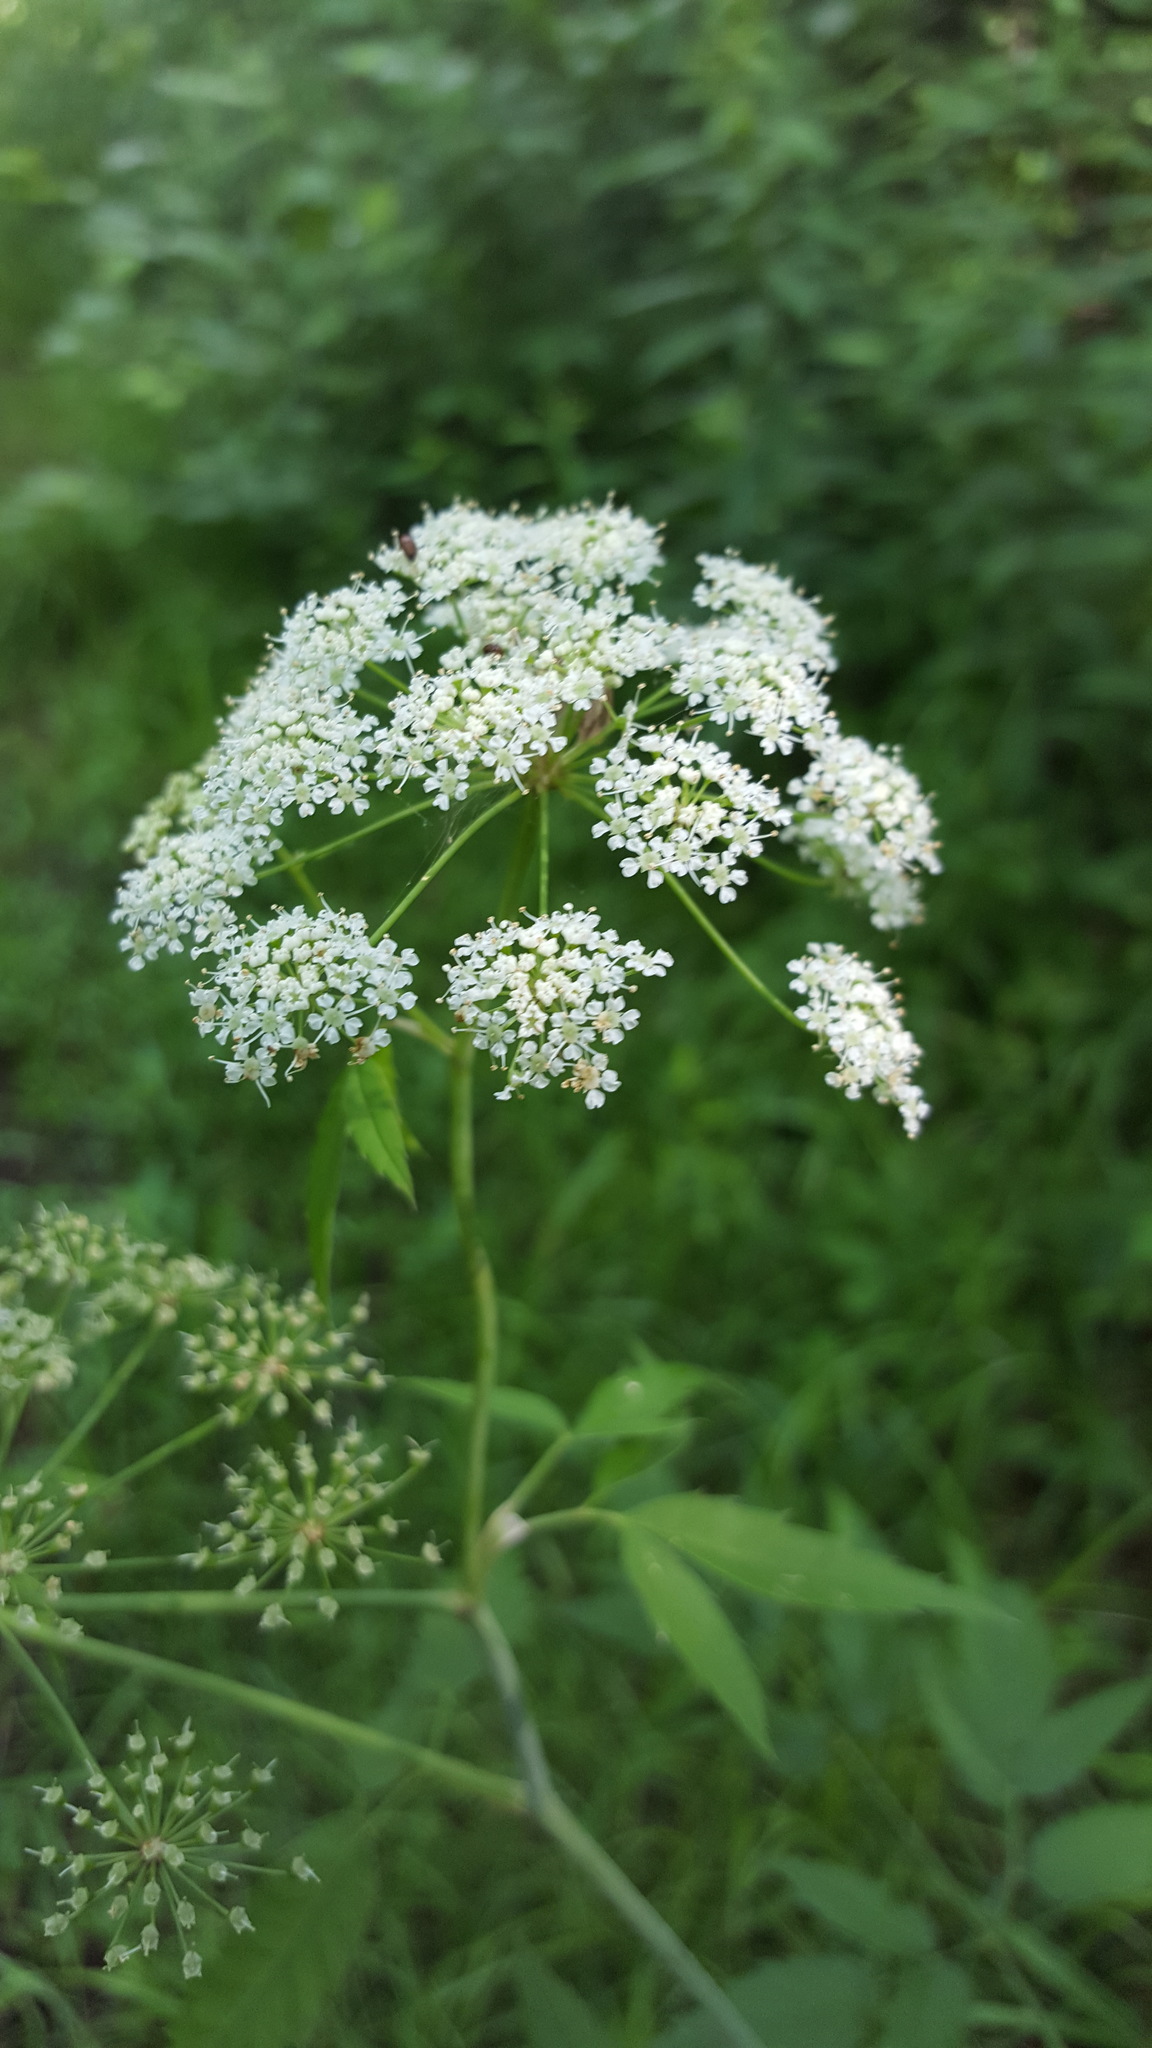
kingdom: Plantae
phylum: Tracheophyta
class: Magnoliopsida
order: Apiales
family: Apiaceae
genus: Cicuta
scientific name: Cicuta maculata
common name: Spotted cowbane
